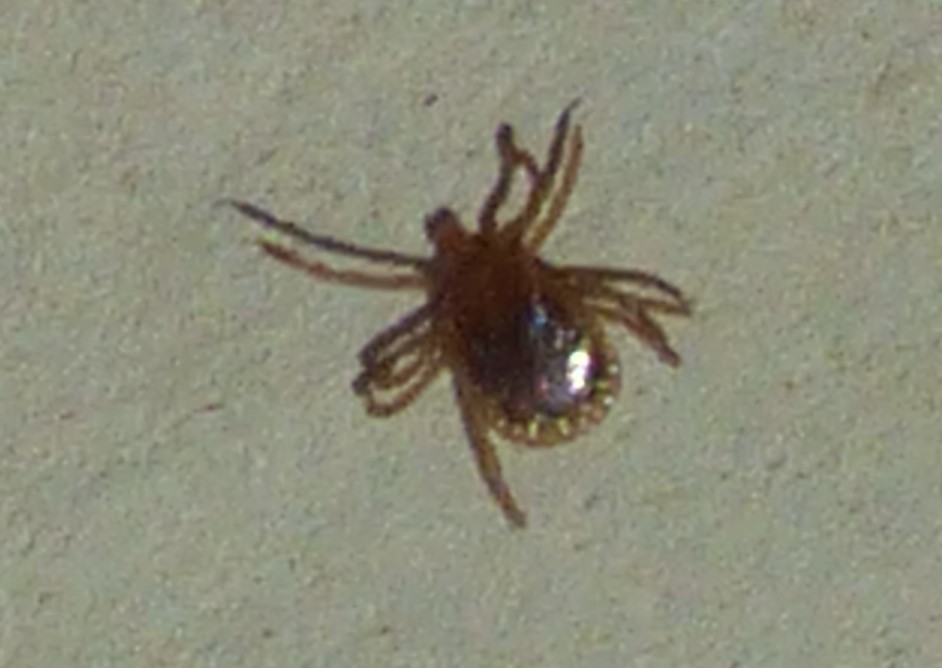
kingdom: Animalia
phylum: Arthropoda
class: Arachnida
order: Ixodida
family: Ixodidae
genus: Amblyomma
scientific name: Amblyomma americanum
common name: Lone star tick
